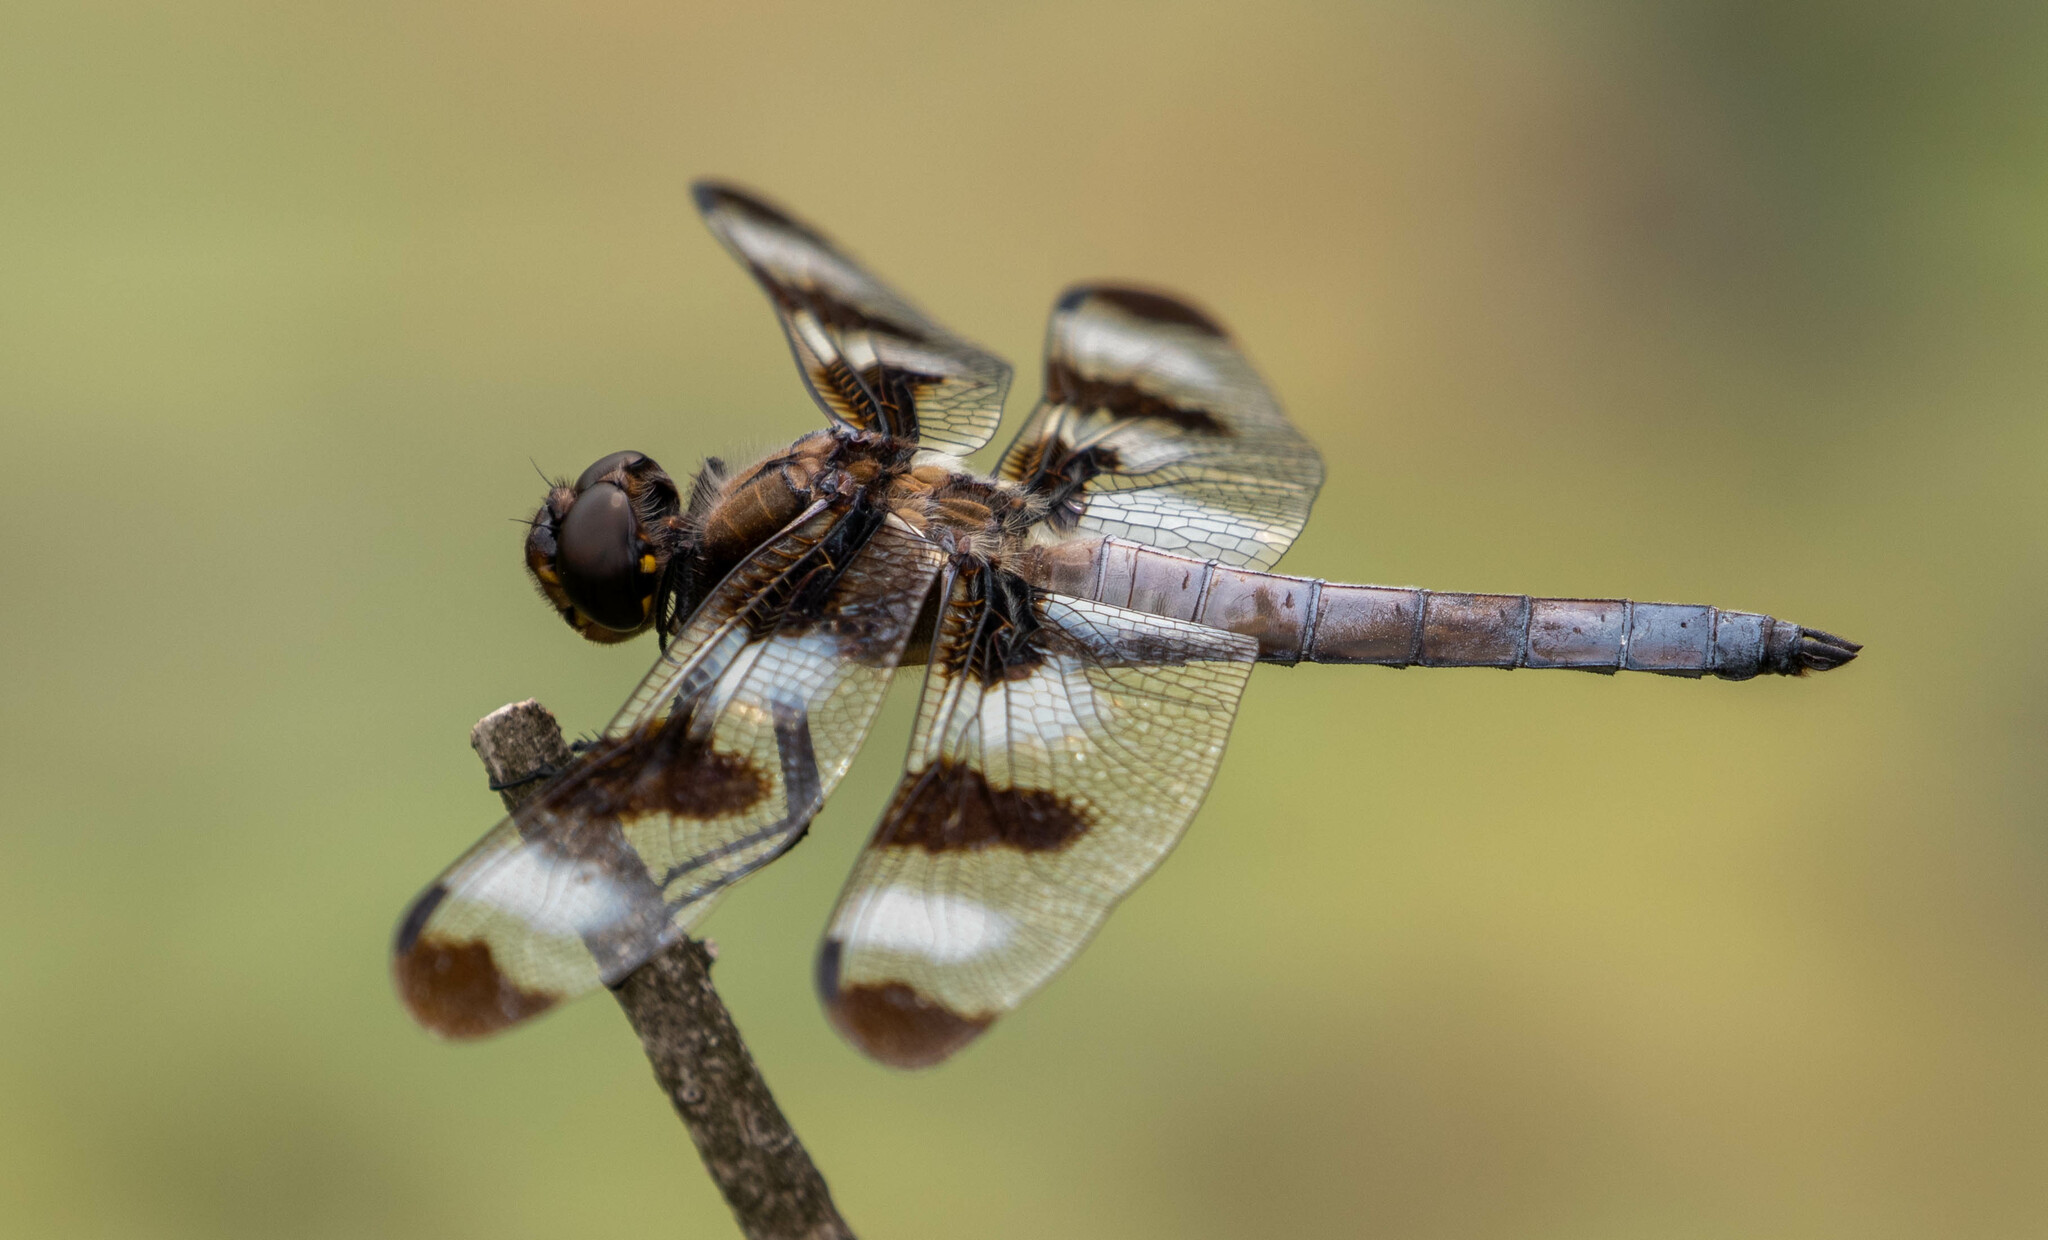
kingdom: Animalia
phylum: Arthropoda
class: Insecta
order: Odonata
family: Libellulidae
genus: Libellula
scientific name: Libellula pulchella
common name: Twelve-spotted skimmer
